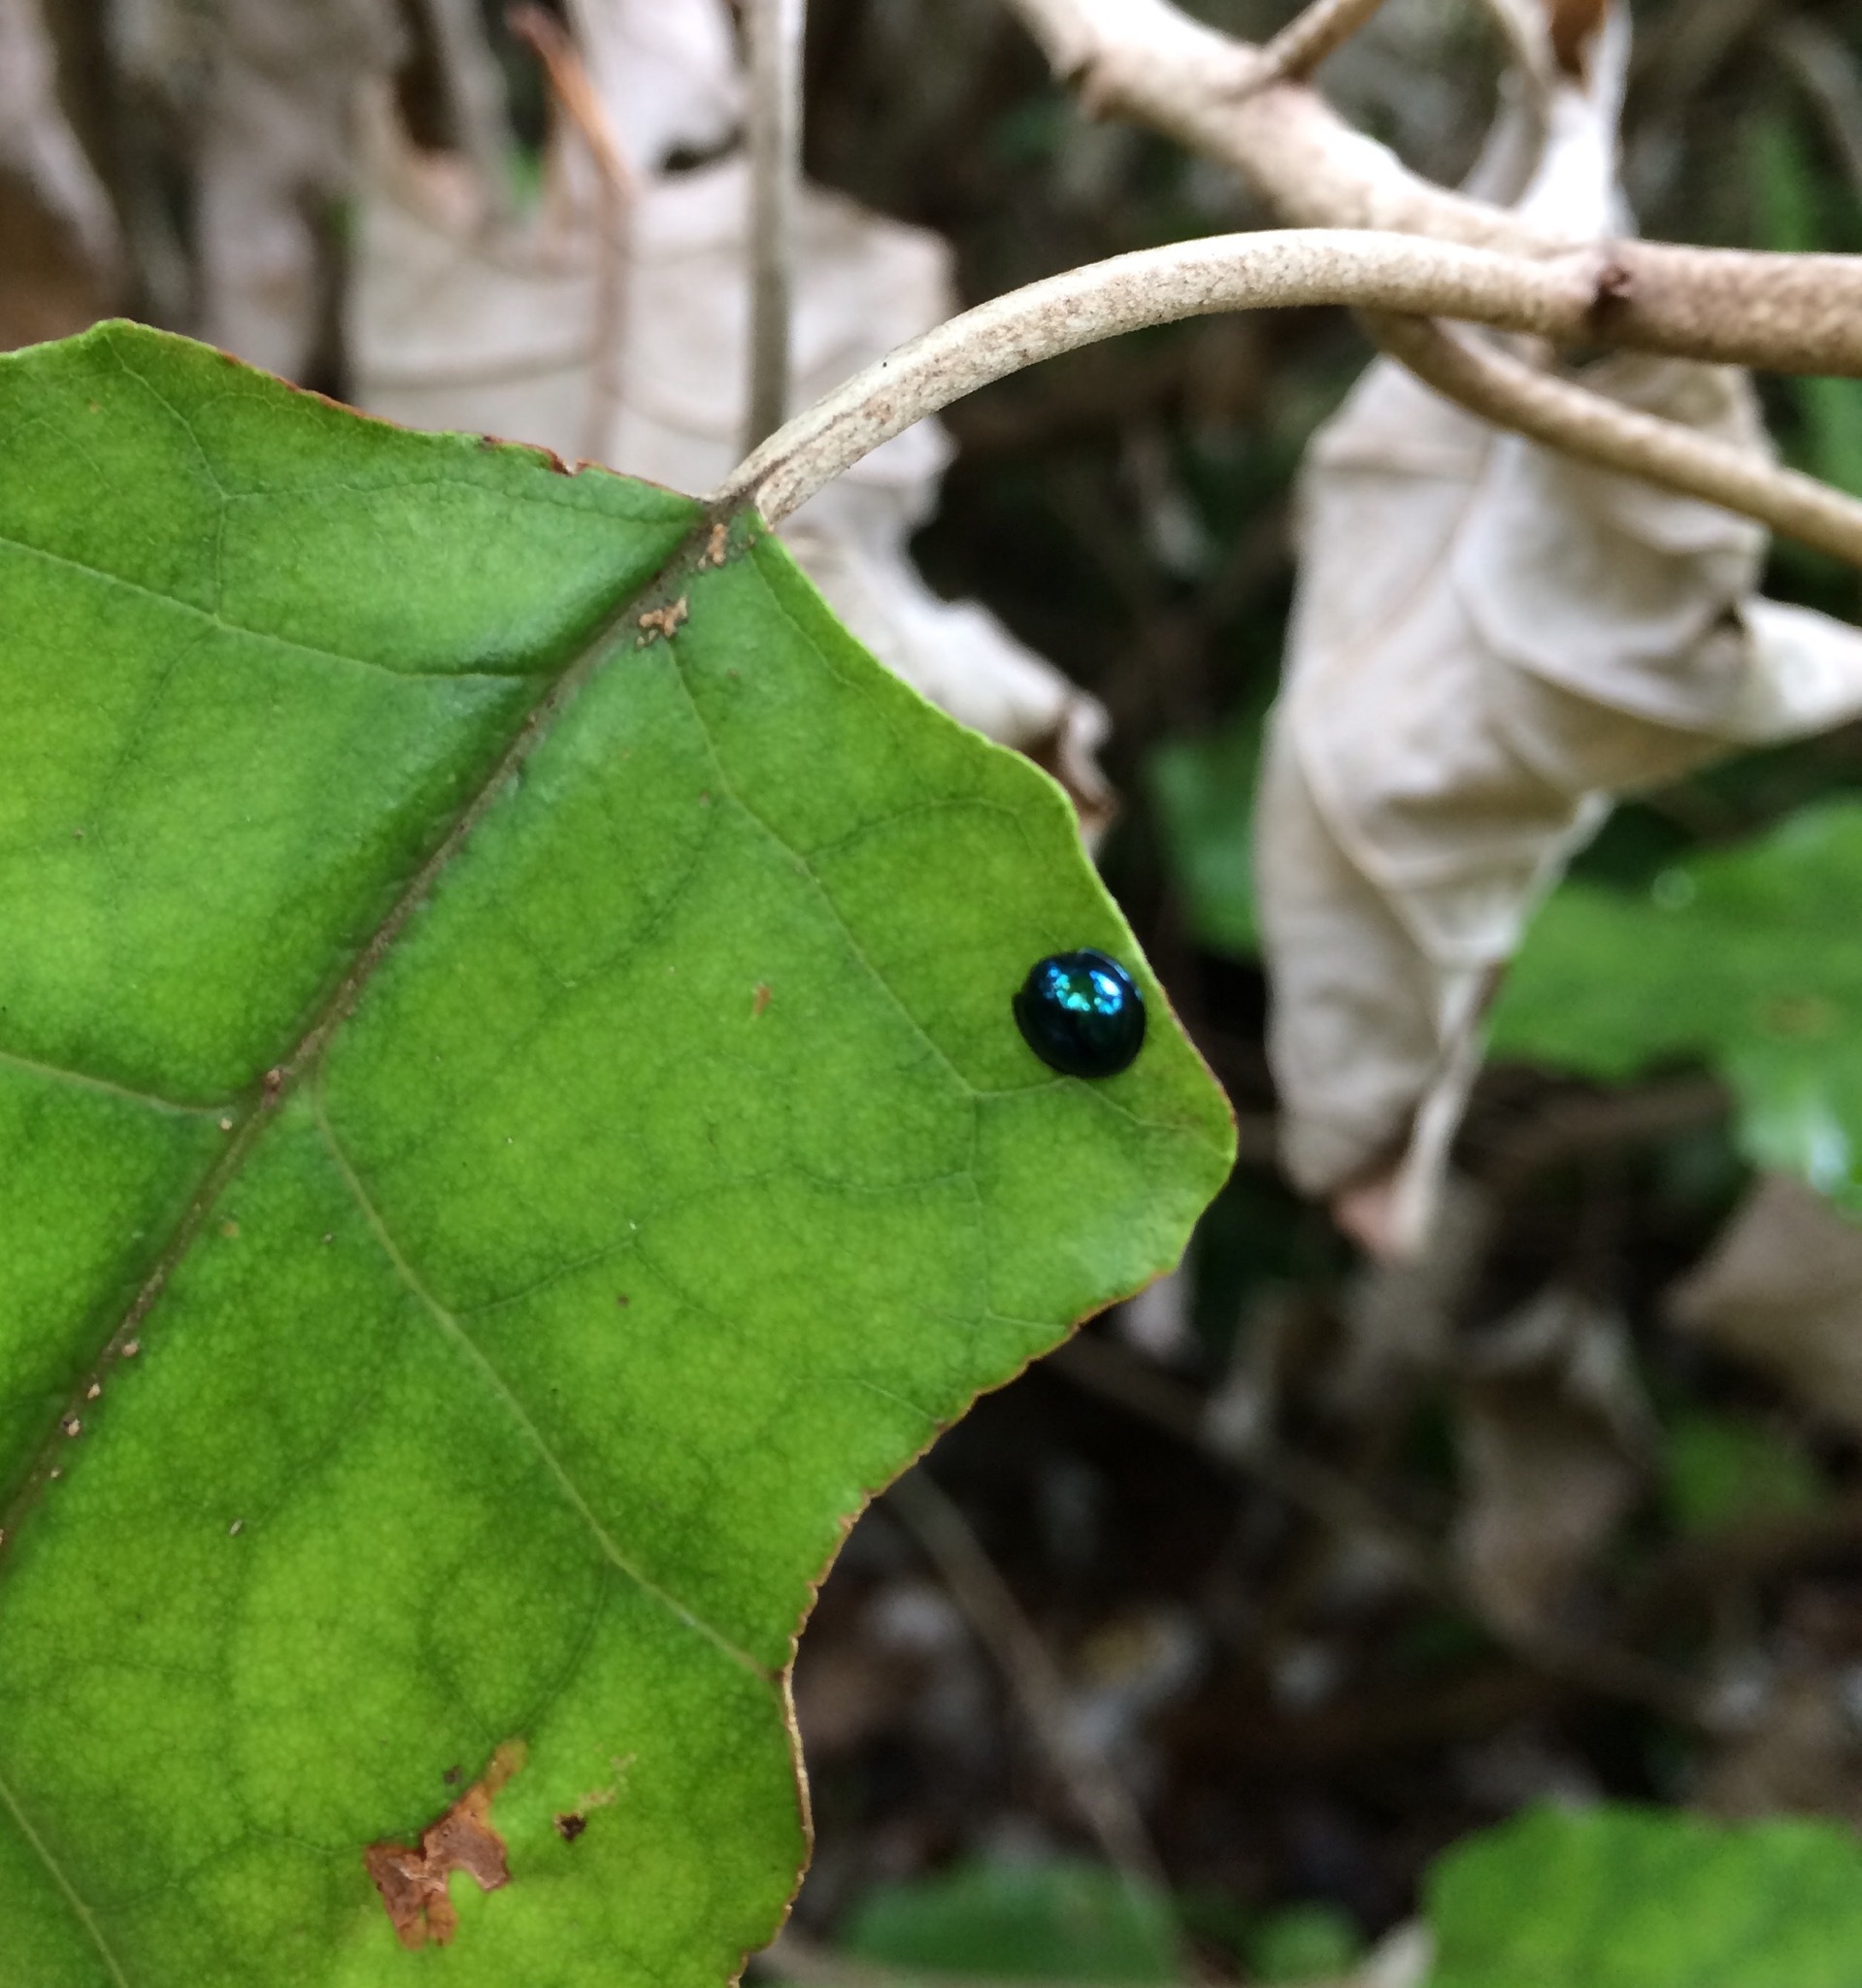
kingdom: Animalia
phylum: Arthropoda
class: Insecta
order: Coleoptera
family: Coccinellidae
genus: Halmus
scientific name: Halmus chalybeus
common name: Steel blue ladybird beetle
